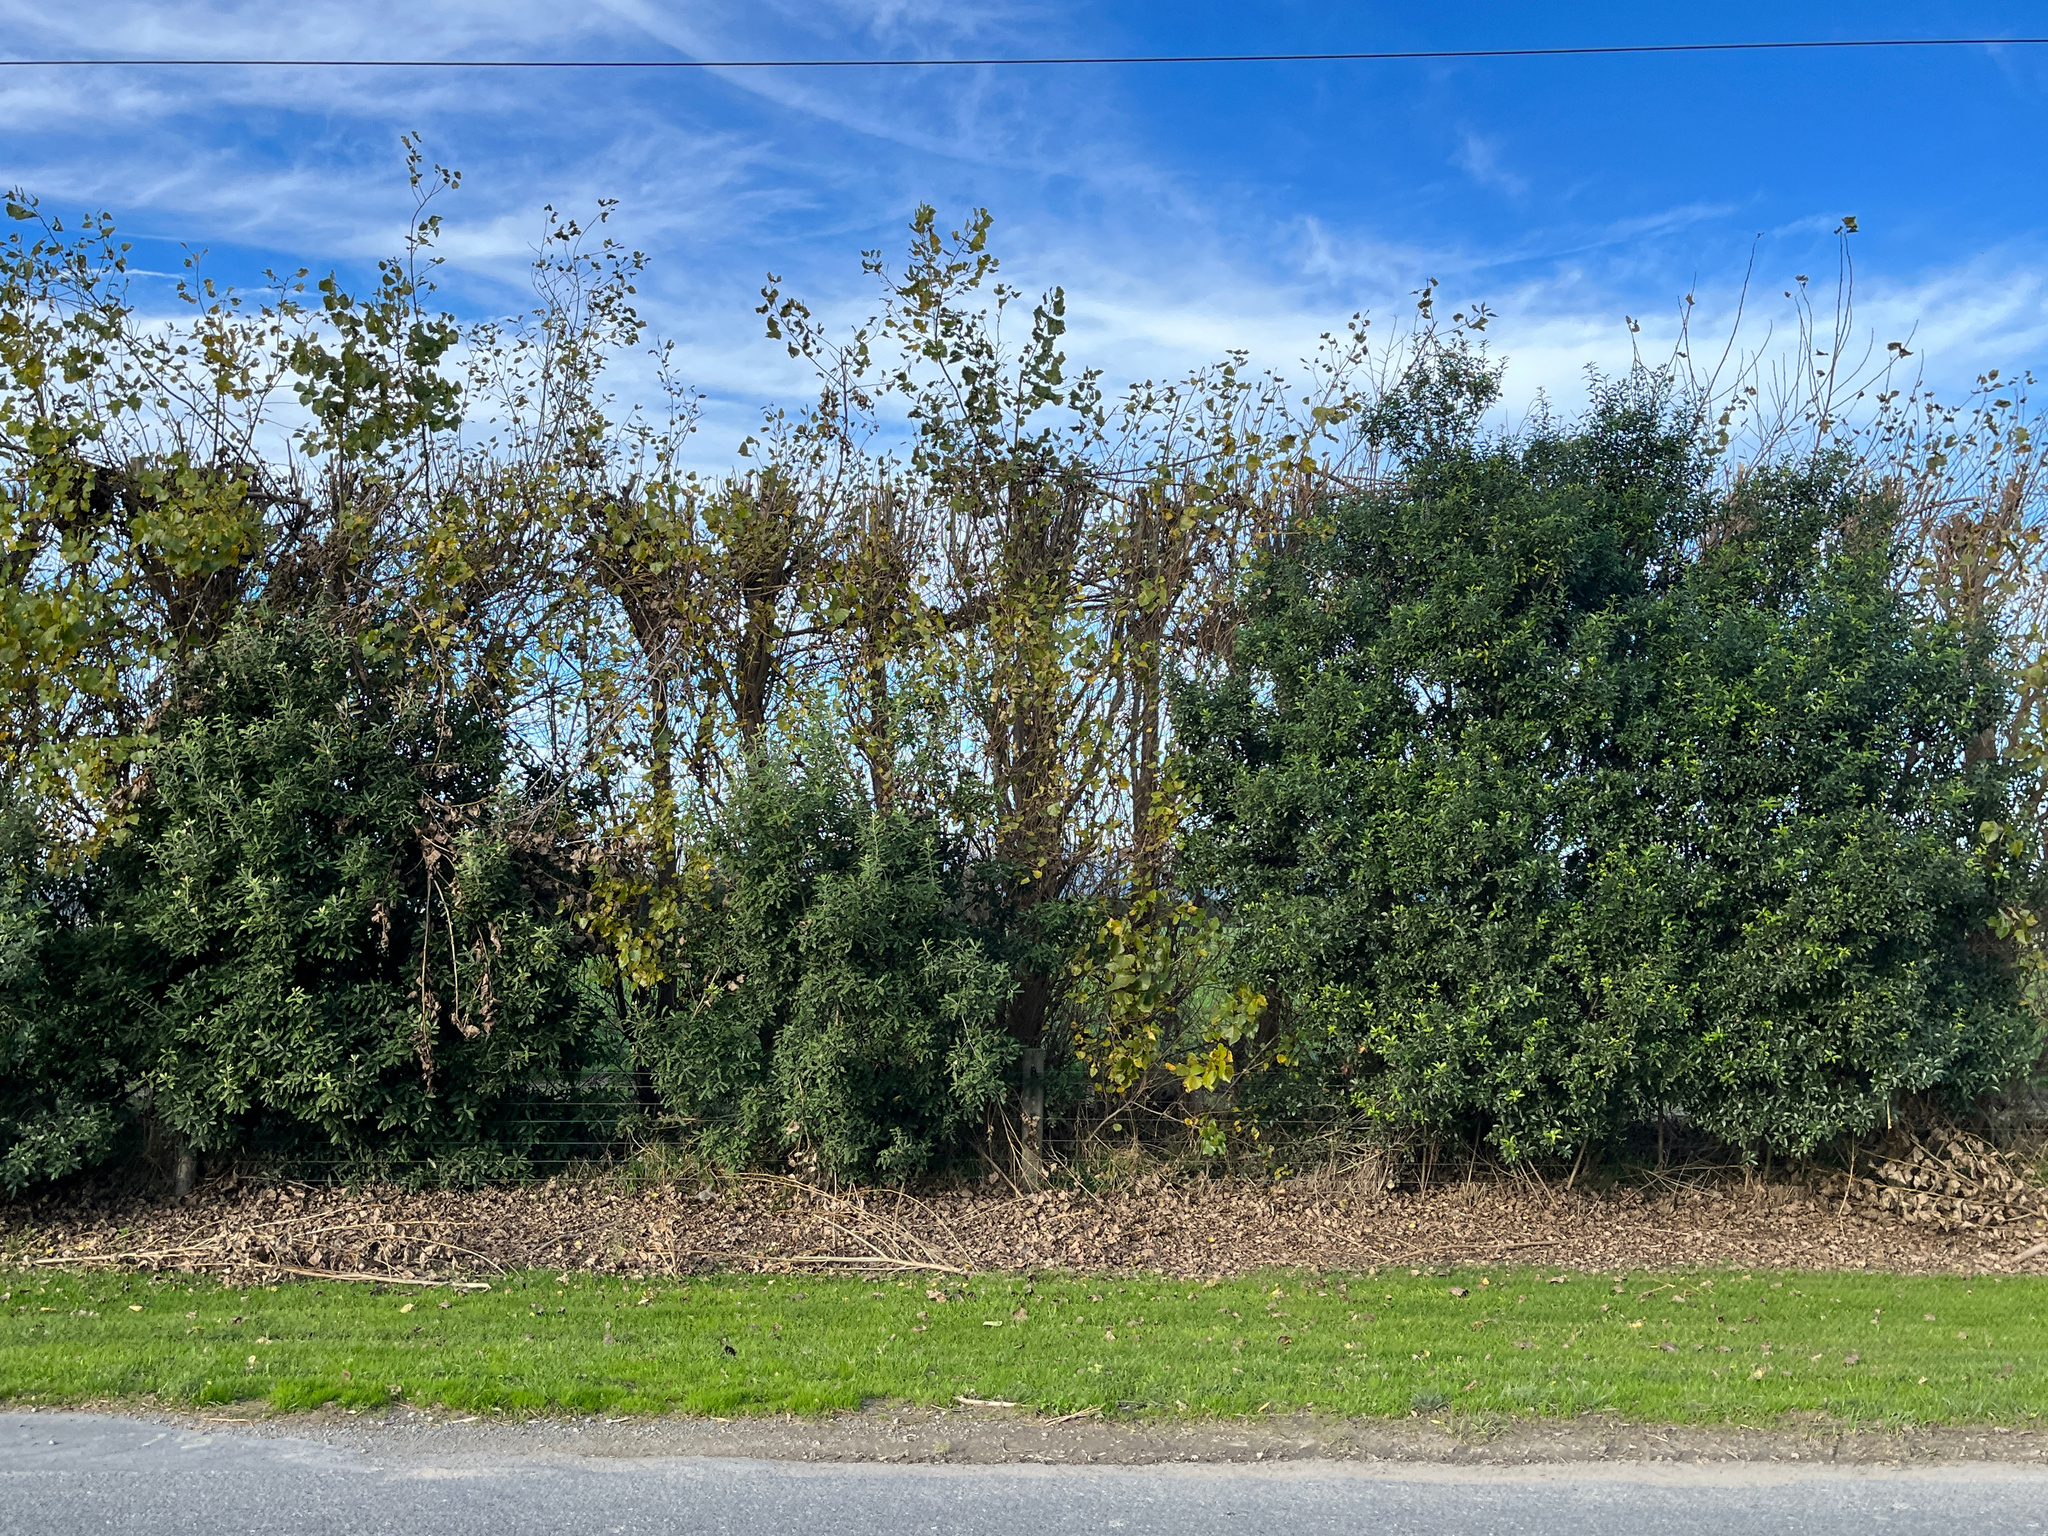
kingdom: Plantae
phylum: Tracheophyta
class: Magnoliopsida
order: Apiales
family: Pittosporaceae
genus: Pittosporum
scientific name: Pittosporum tenuifolium
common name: Kohuhu
